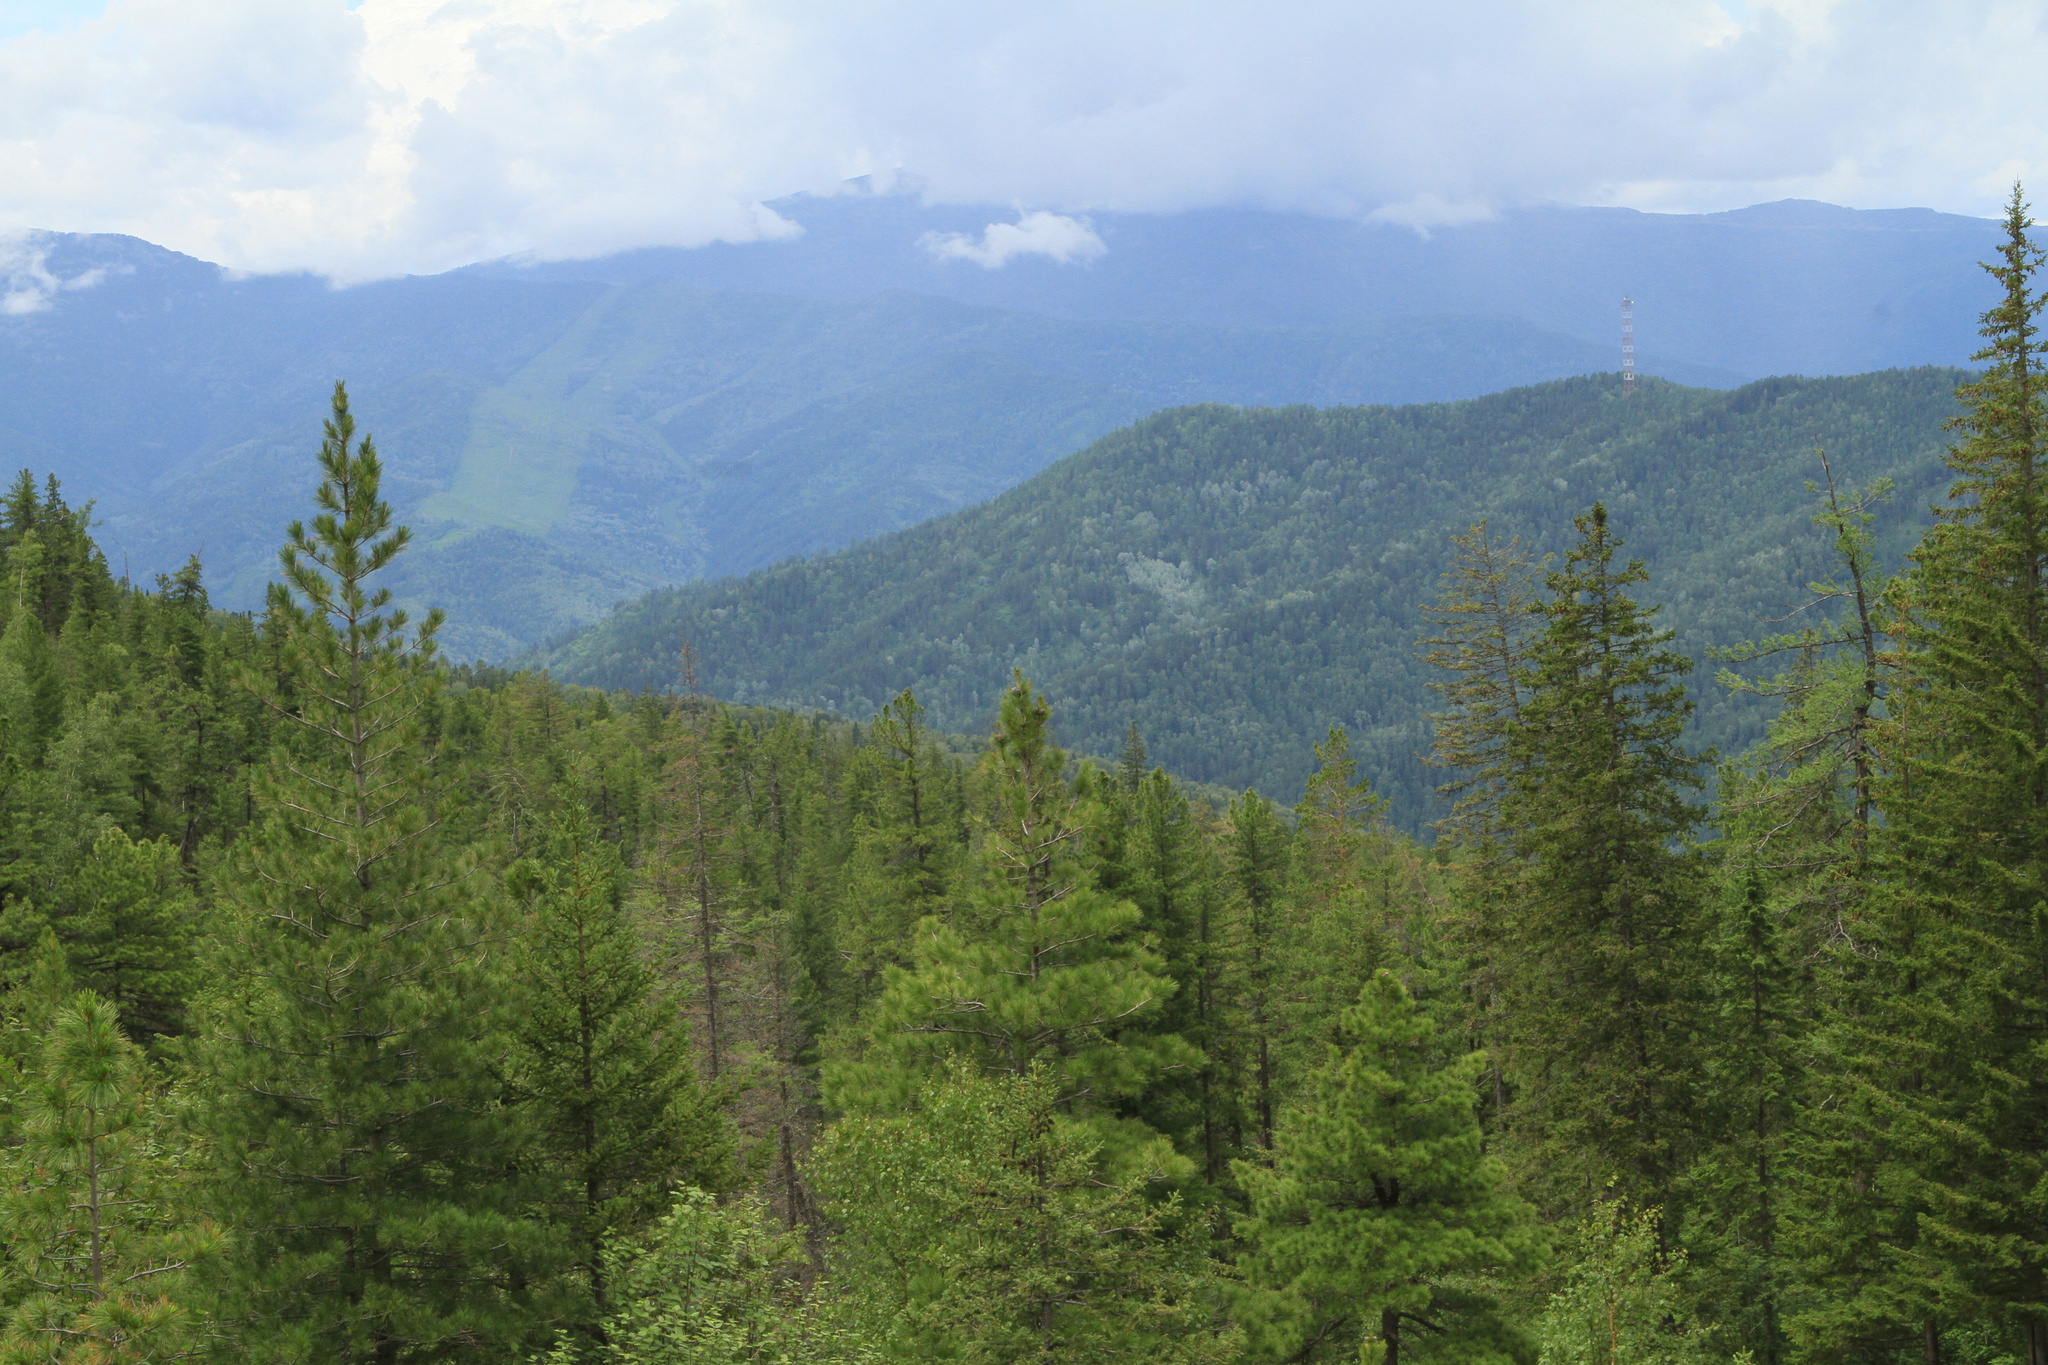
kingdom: Plantae
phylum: Tracheophyta
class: Pinopsida
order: Pinales
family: Pinaceae
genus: Picea
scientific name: Picea obovata
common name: Siberian spruce
